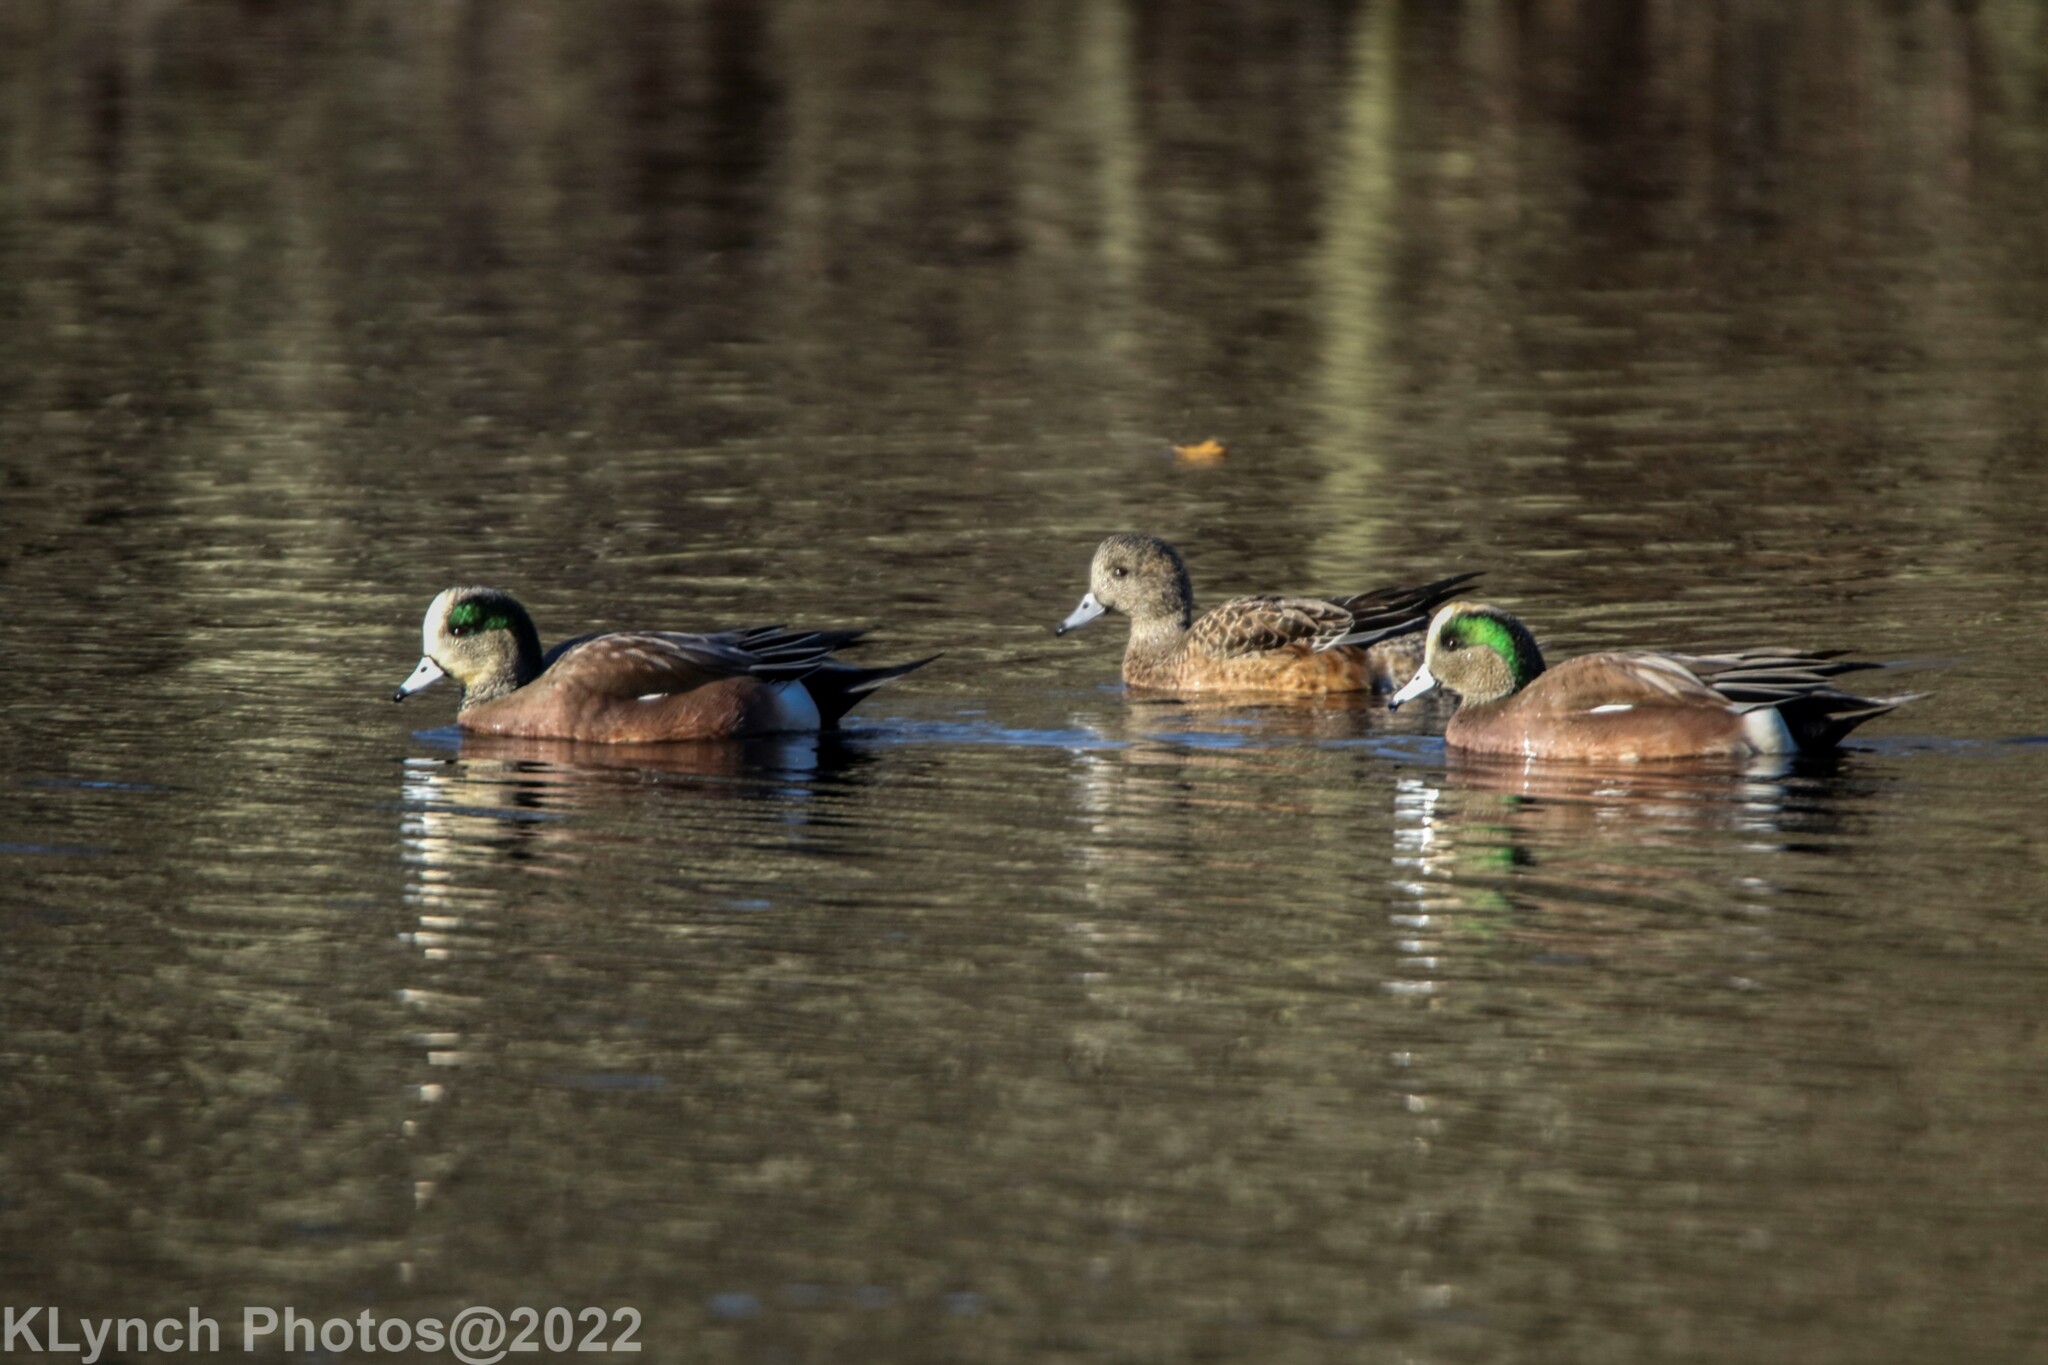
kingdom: Animalia
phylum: Chordata
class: Aves
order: Anseriformes
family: Anatidae
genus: Mareca
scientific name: Mareca americana
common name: American wigeon
